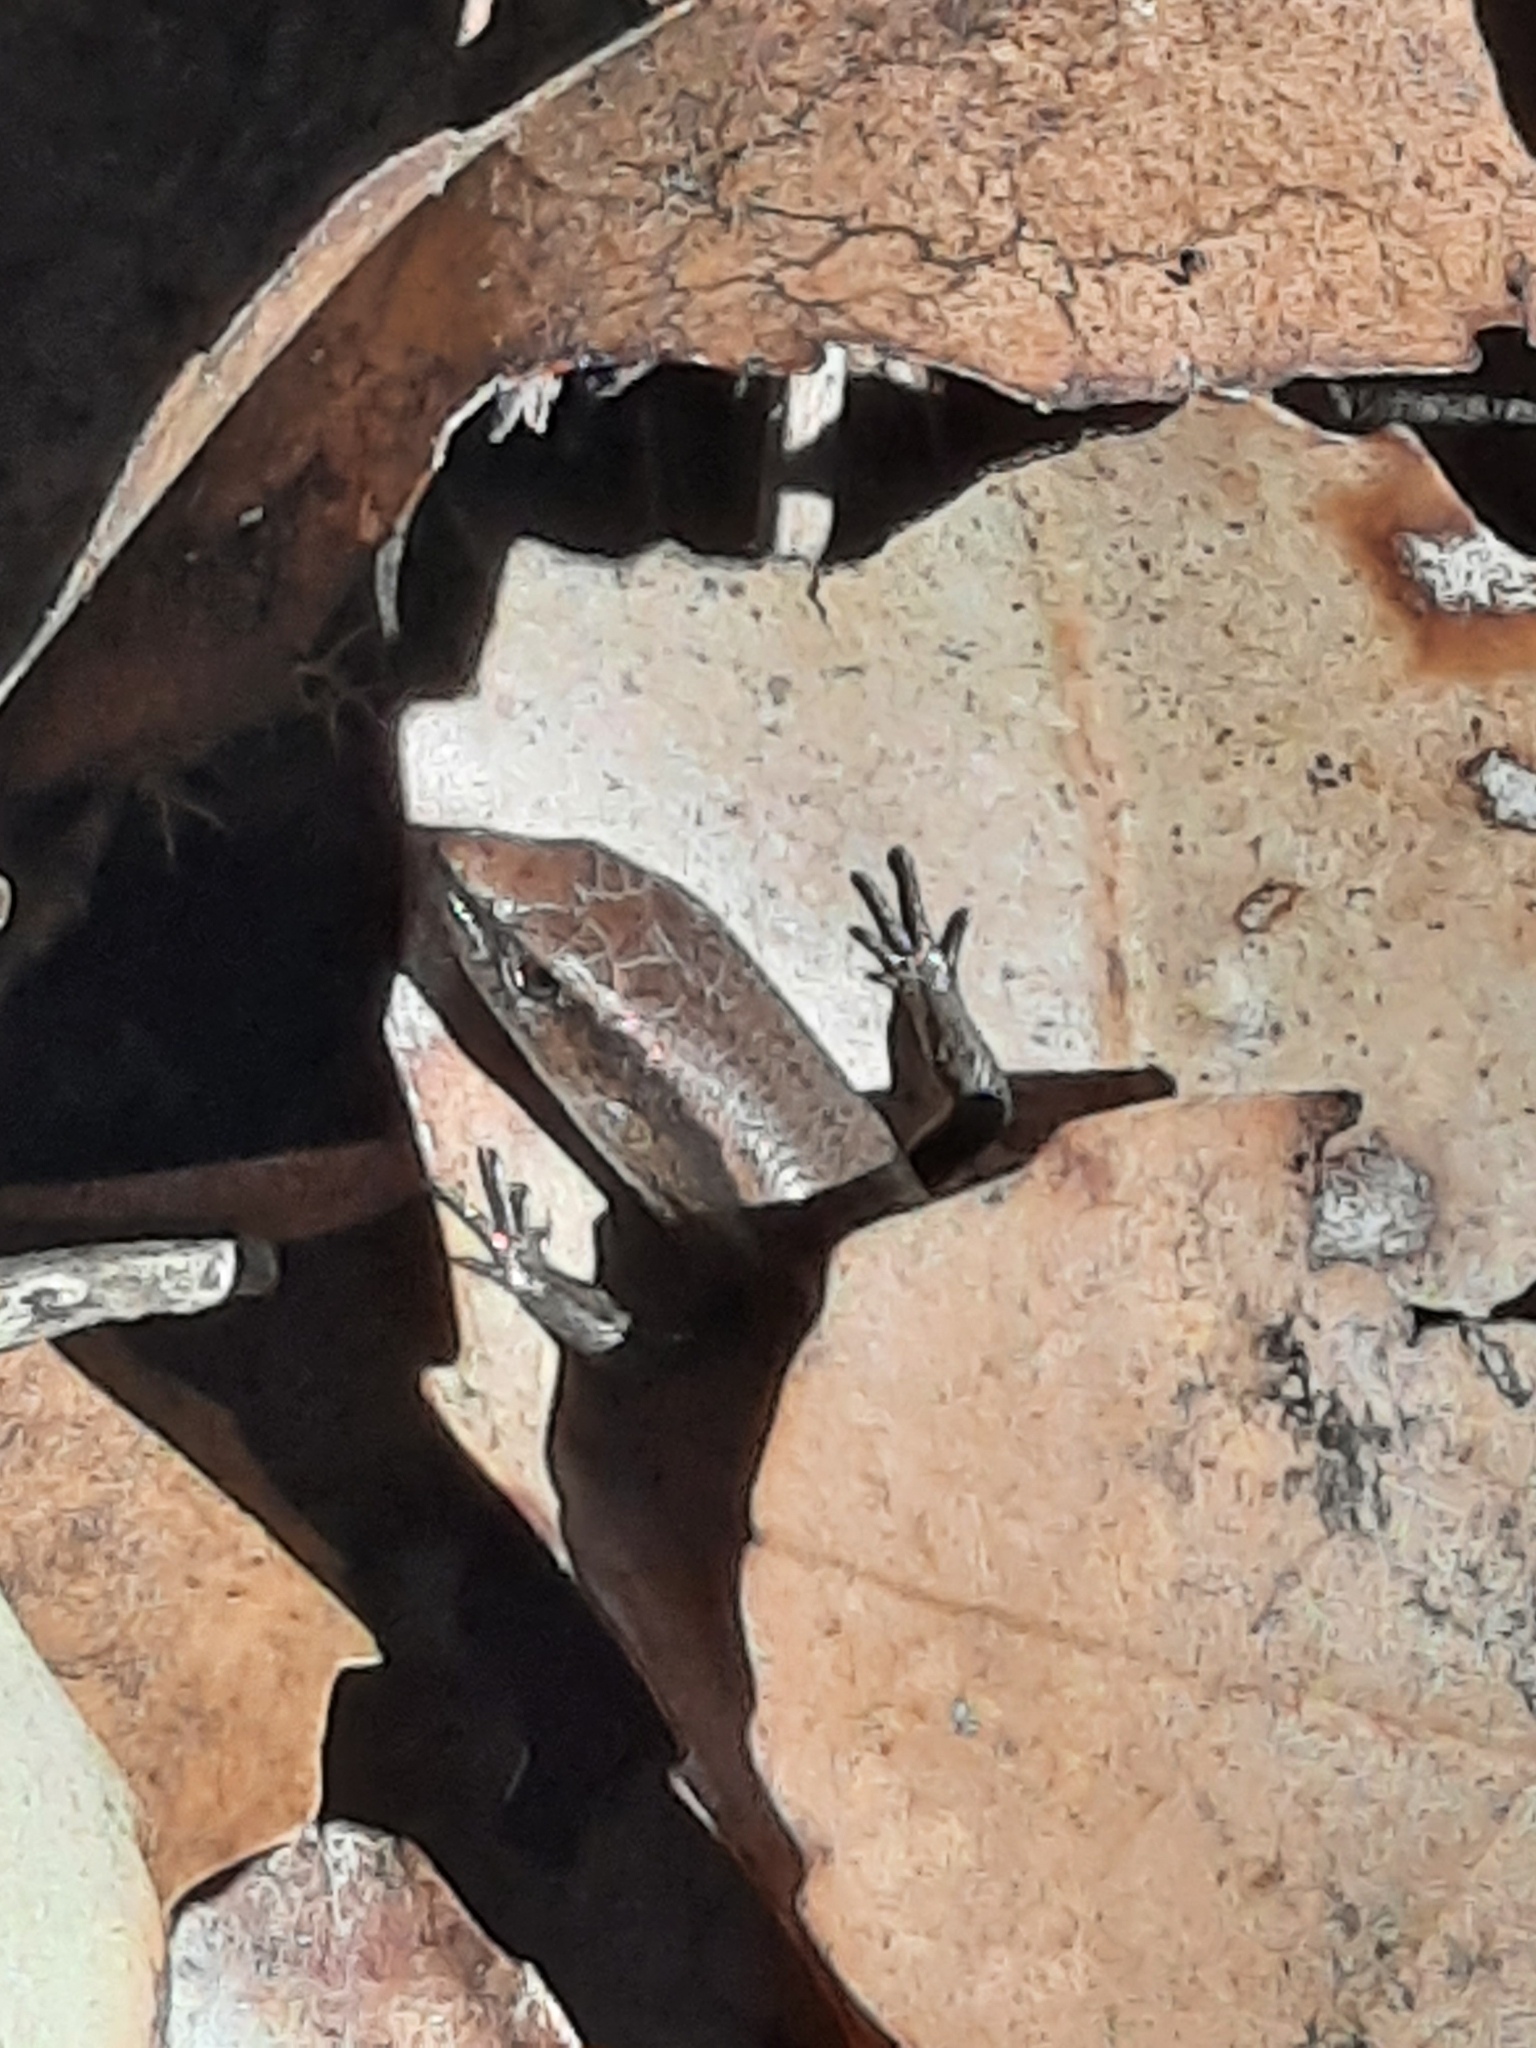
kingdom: Animalia
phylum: Chordata
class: Squamata
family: Scincidae
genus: Lampropholis
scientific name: Lampropholis delicata
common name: Plague skink
